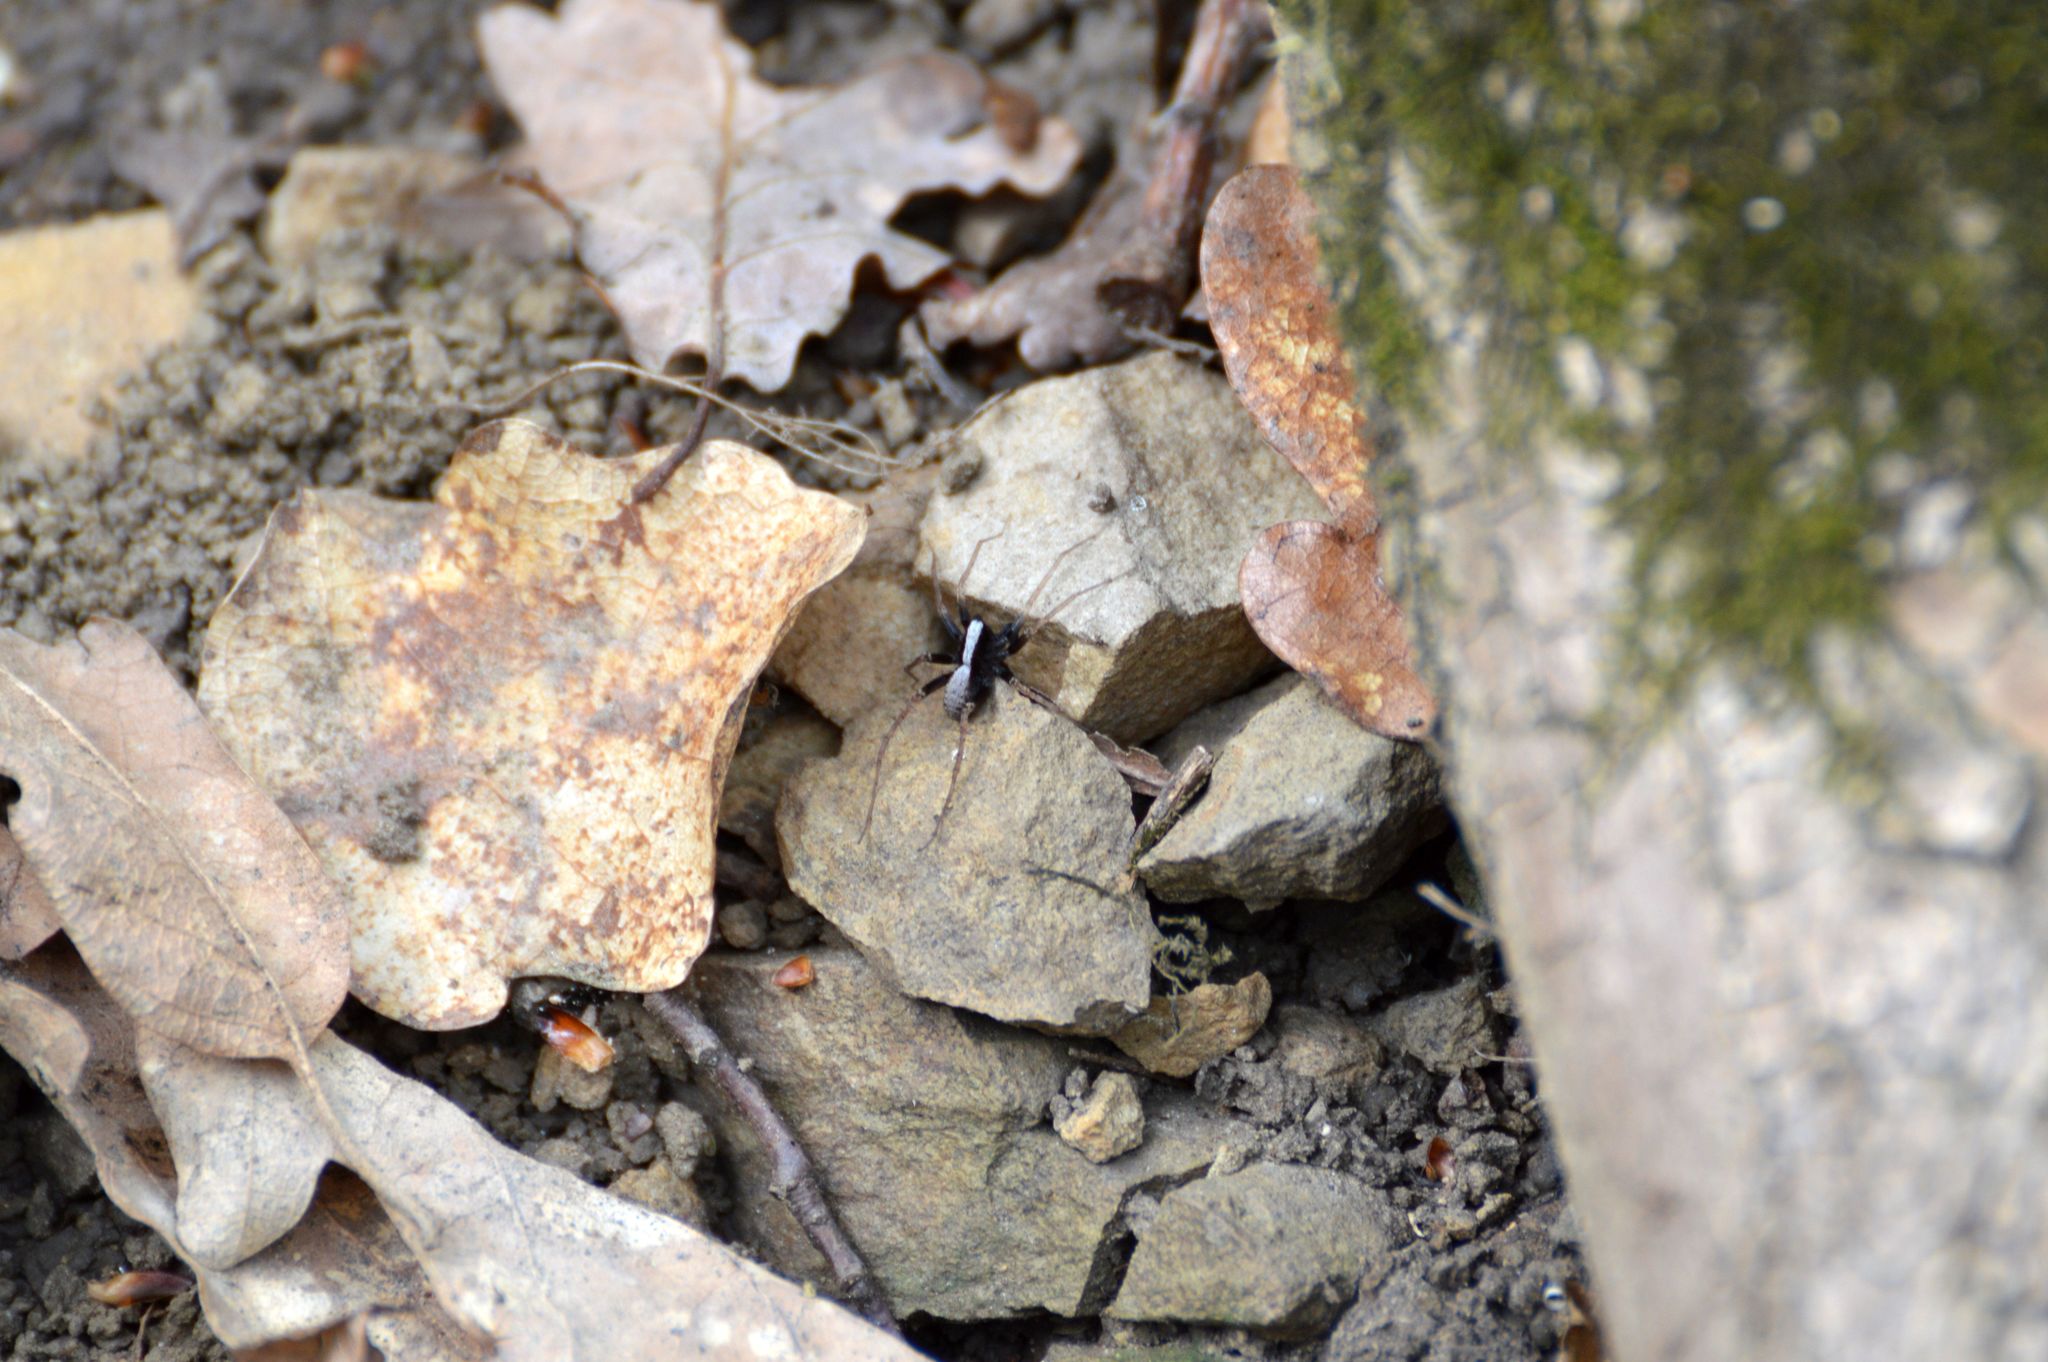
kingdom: Animalia
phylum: Arthropoda
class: Arachnida
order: Araneae
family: Lycosidae
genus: Pardosa
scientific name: Pardosa
